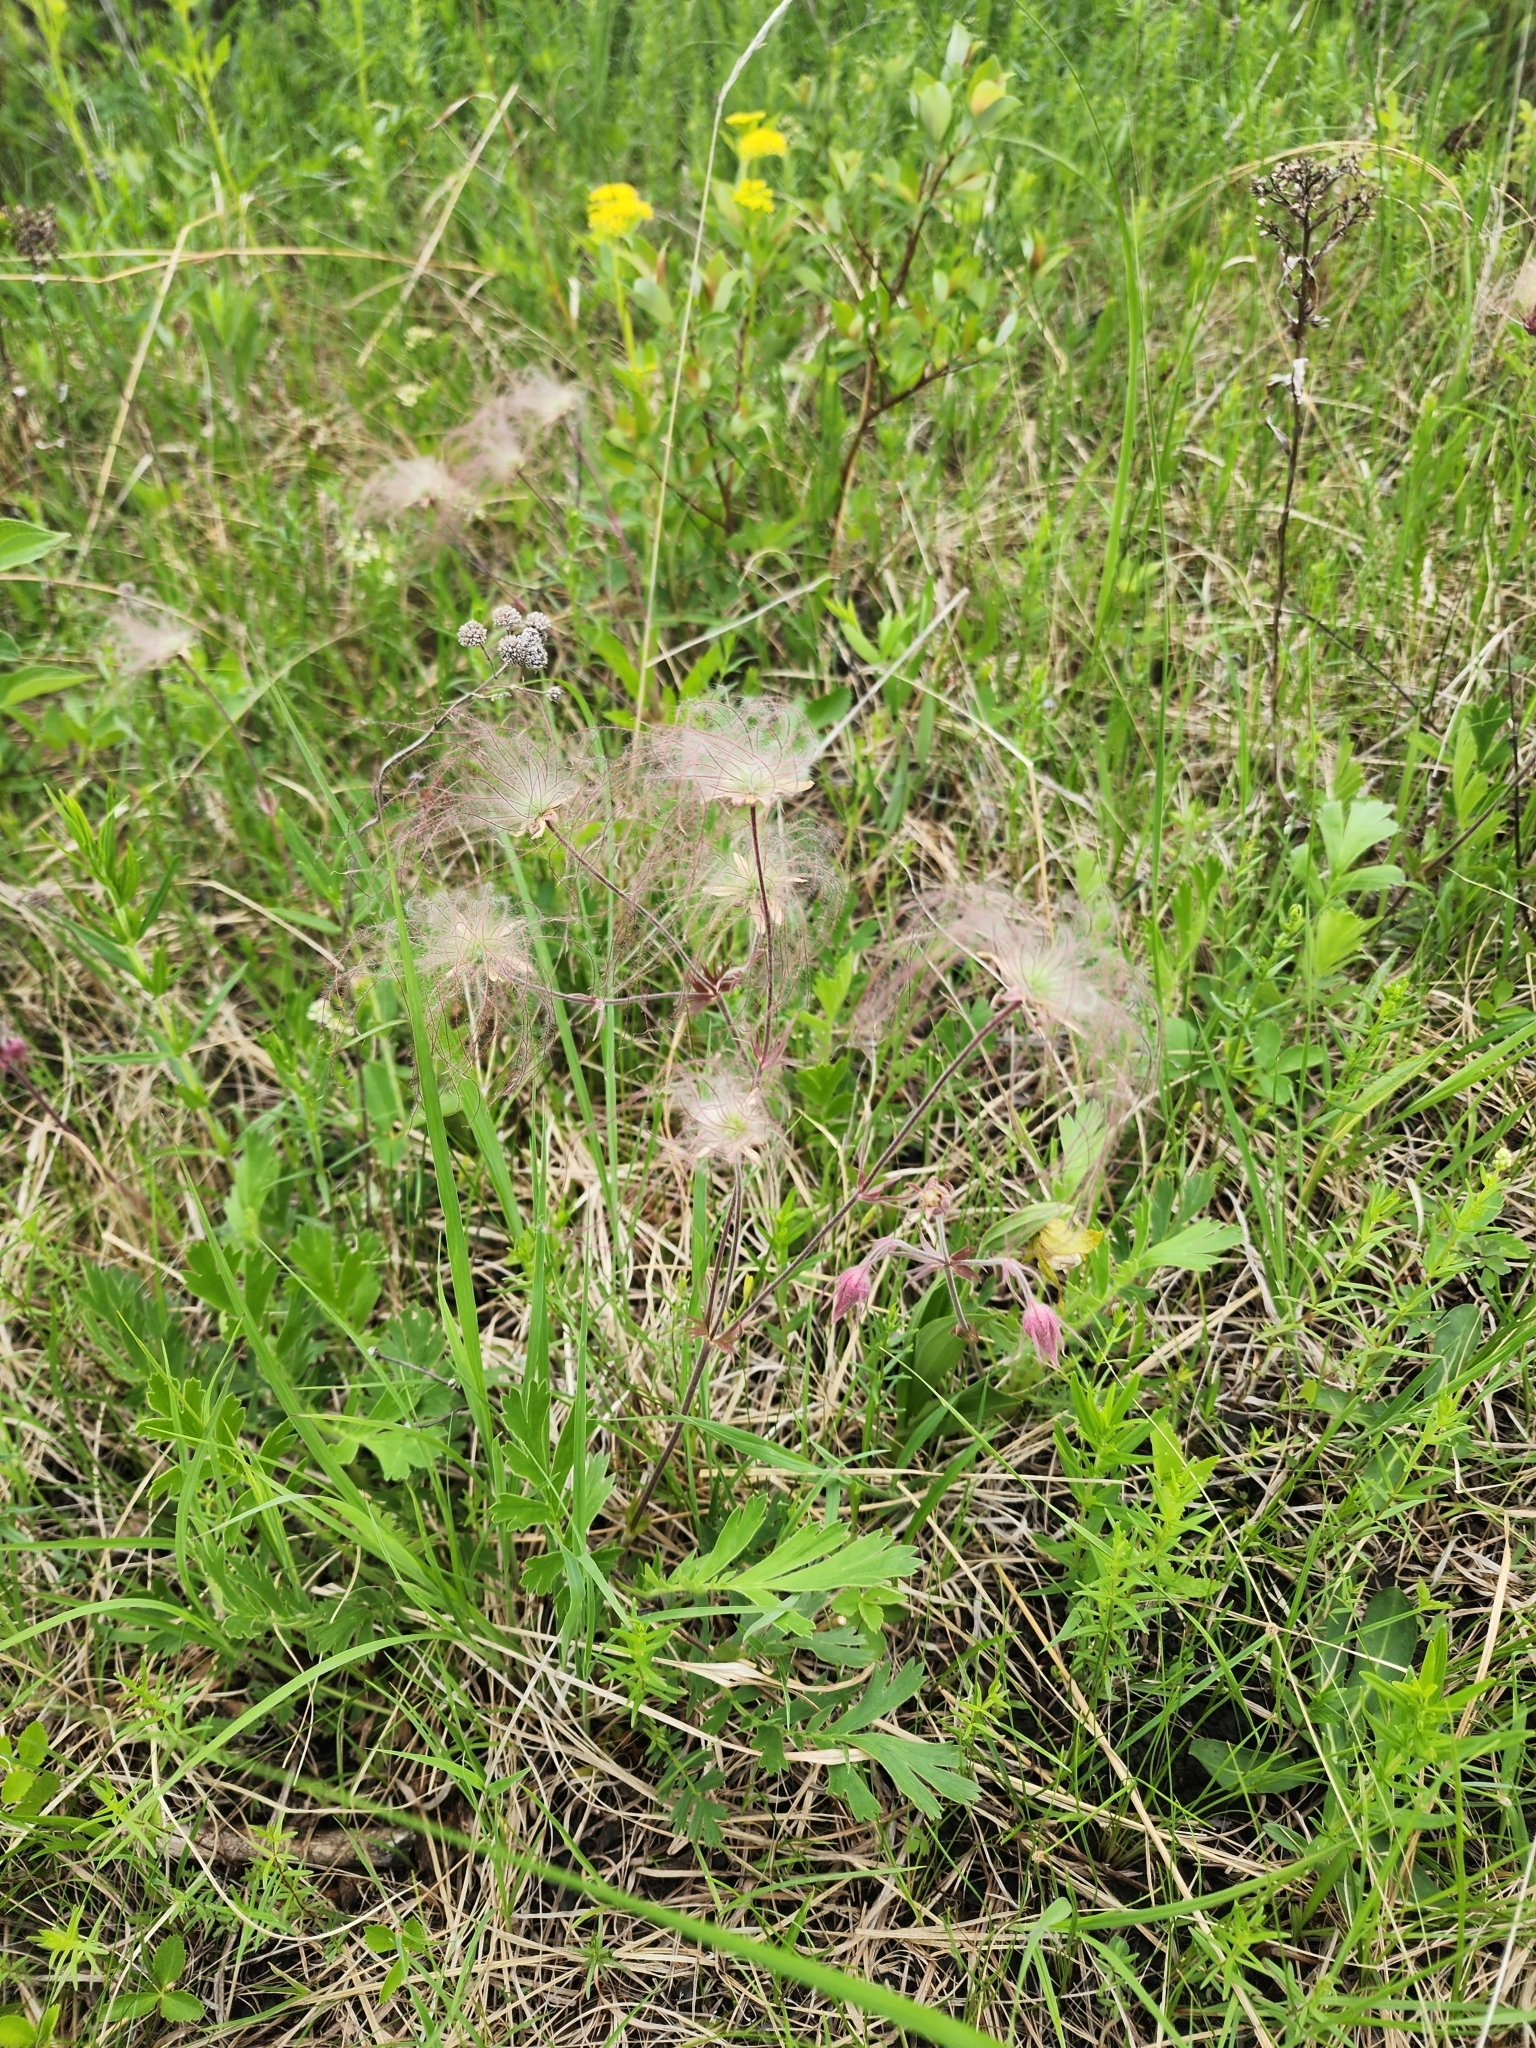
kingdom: Plantae
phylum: Tracheophyta
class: Magnoliopsida
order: Rosales
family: Rosaceae
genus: Geum
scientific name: Geum triflorum
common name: Old man's whiskers
